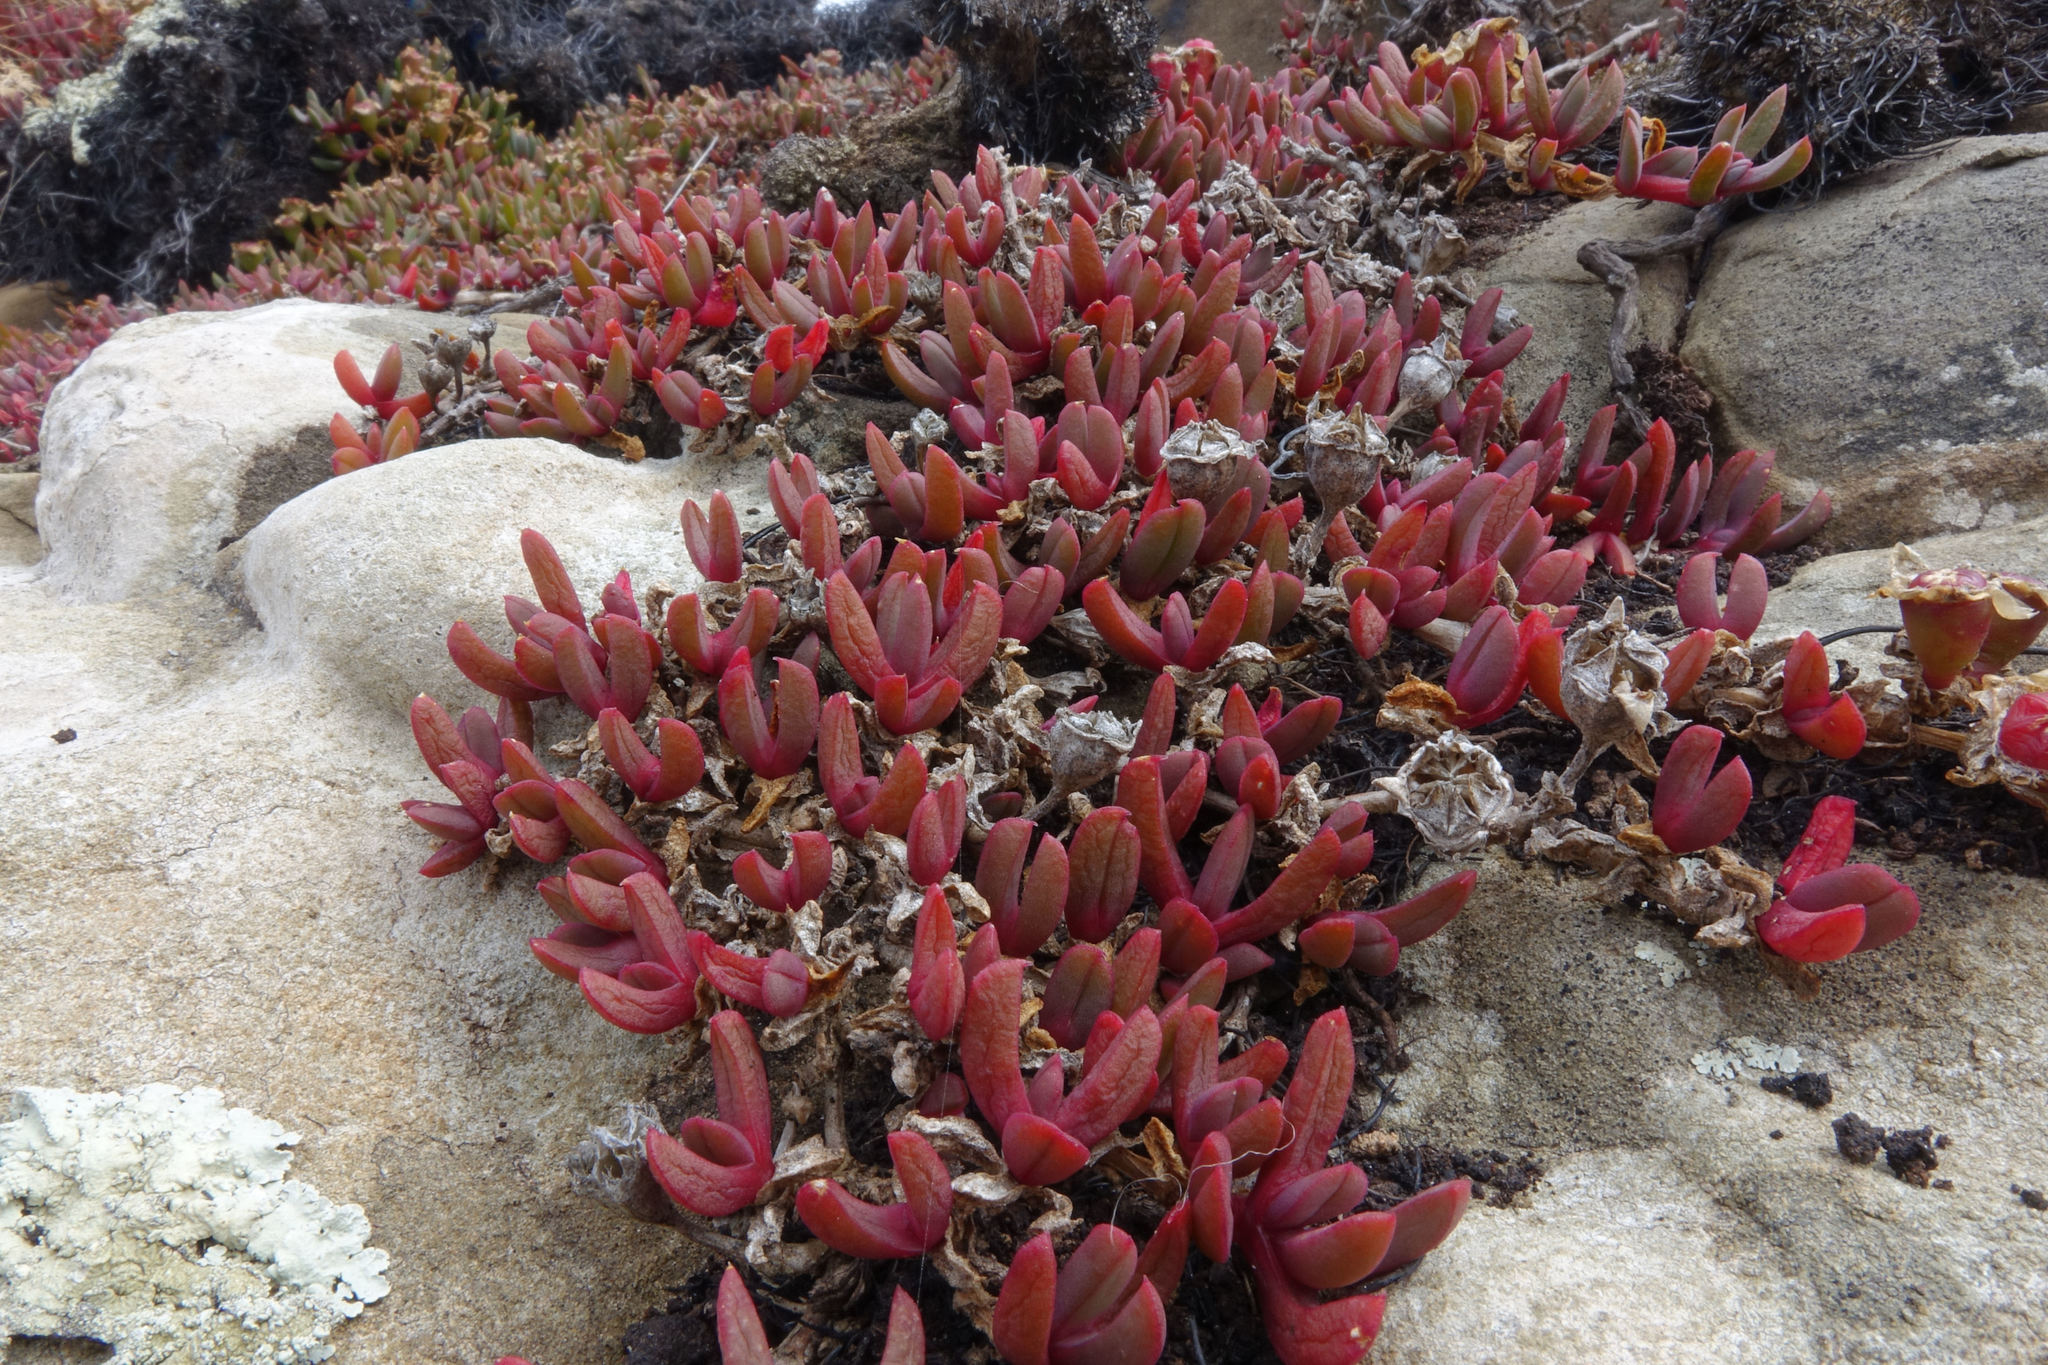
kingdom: Plantae
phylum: Tracheophyta
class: Magnoliopsida
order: Caryophyllales
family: Aizoaceae
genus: Disphyma
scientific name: Disphyma australe
